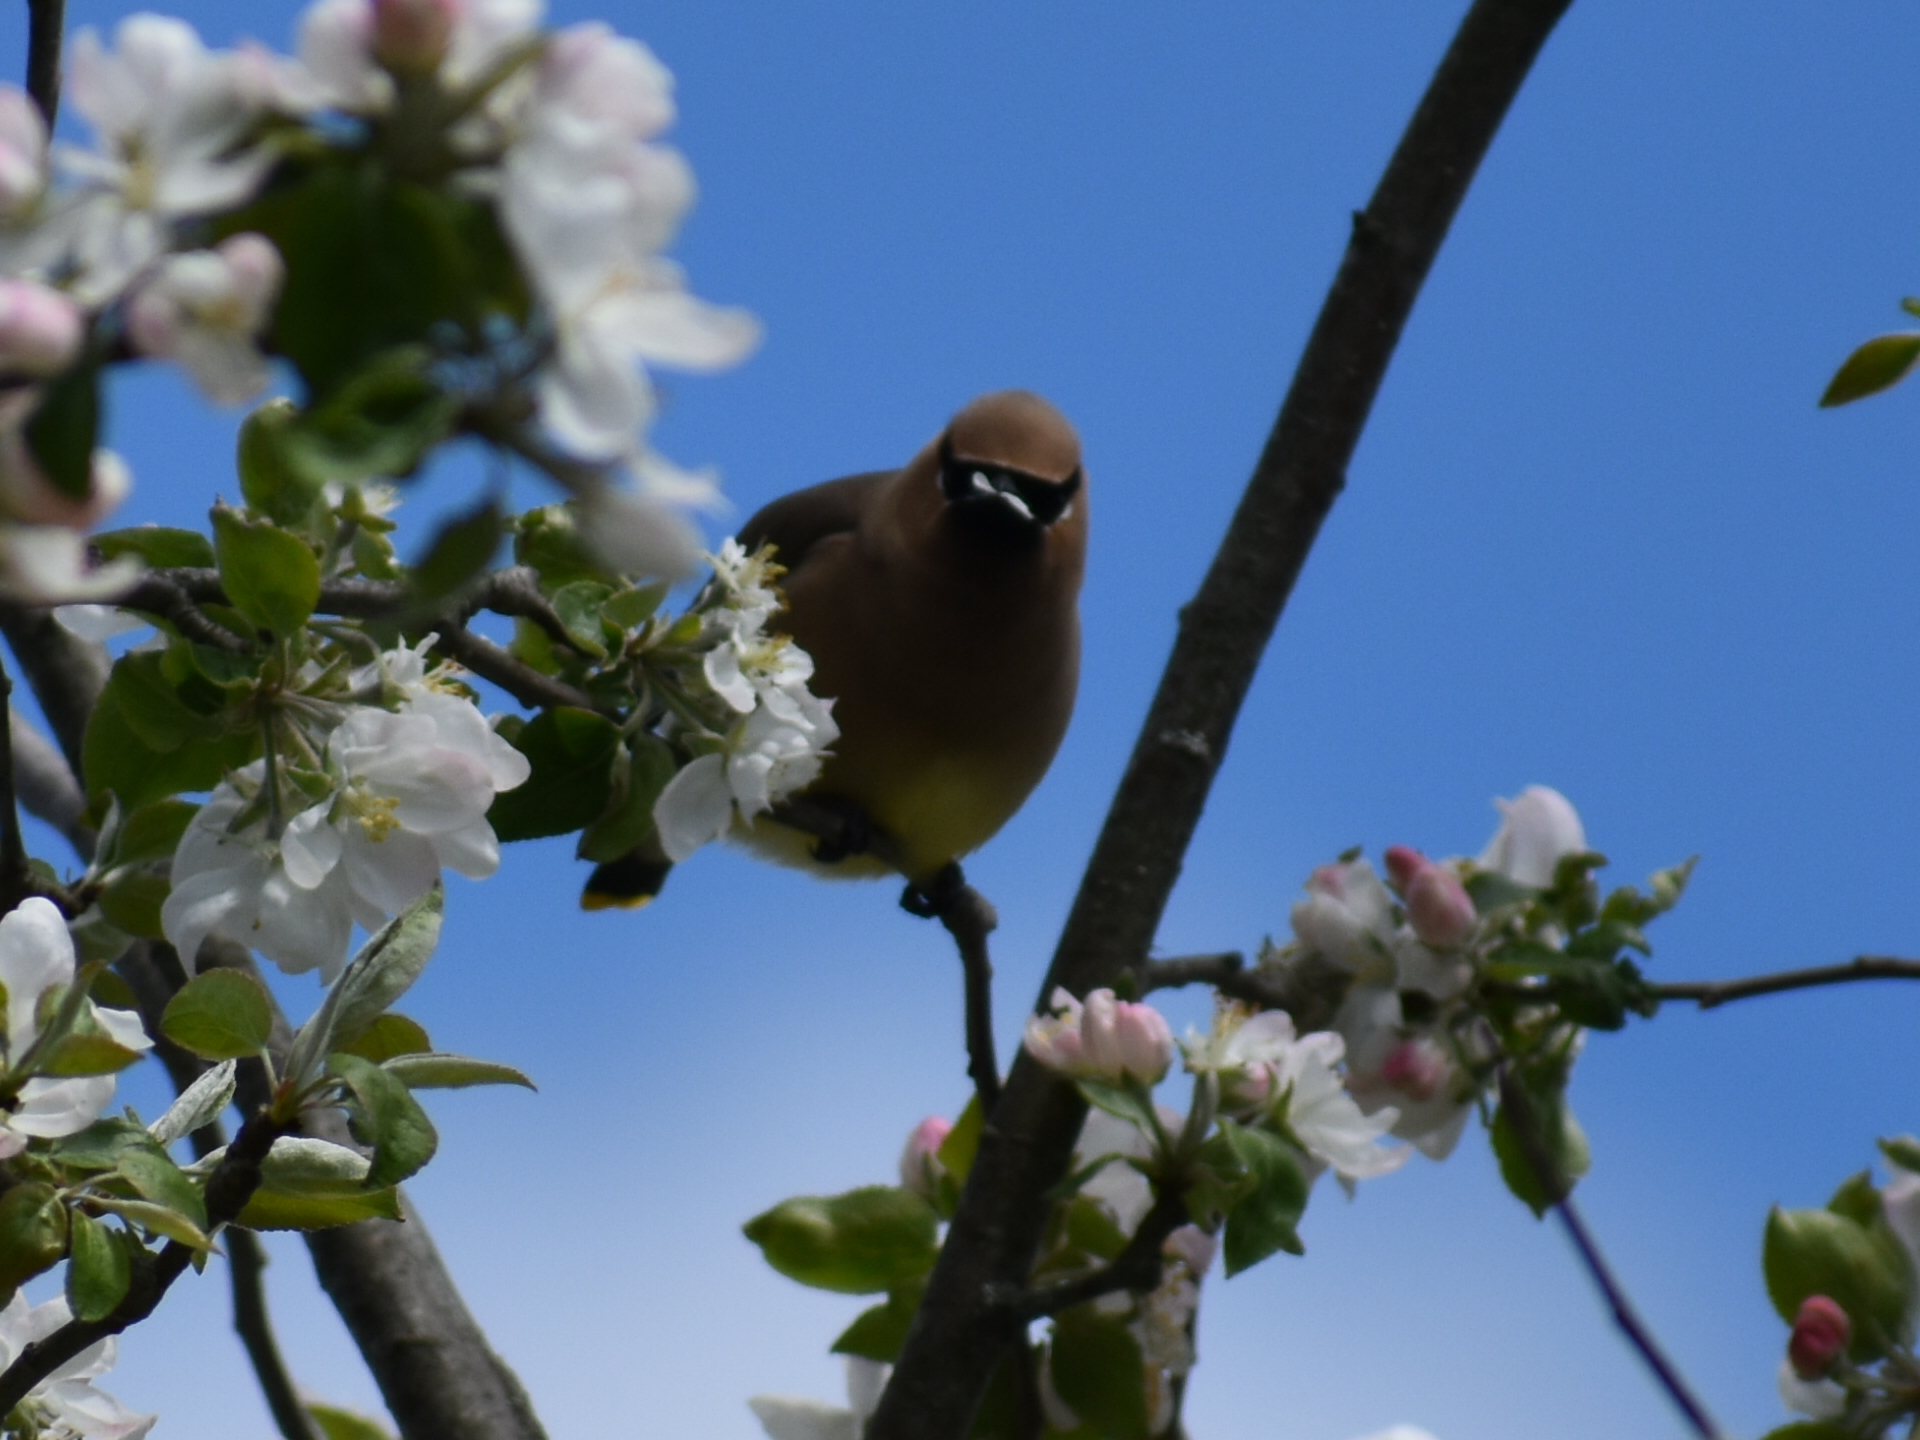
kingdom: Animalia
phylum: Chordata
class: Aves
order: Passeriformes
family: Bombycillidae
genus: Bombycilla
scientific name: Bombycilla cedrorum
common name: Cedar waxwing
